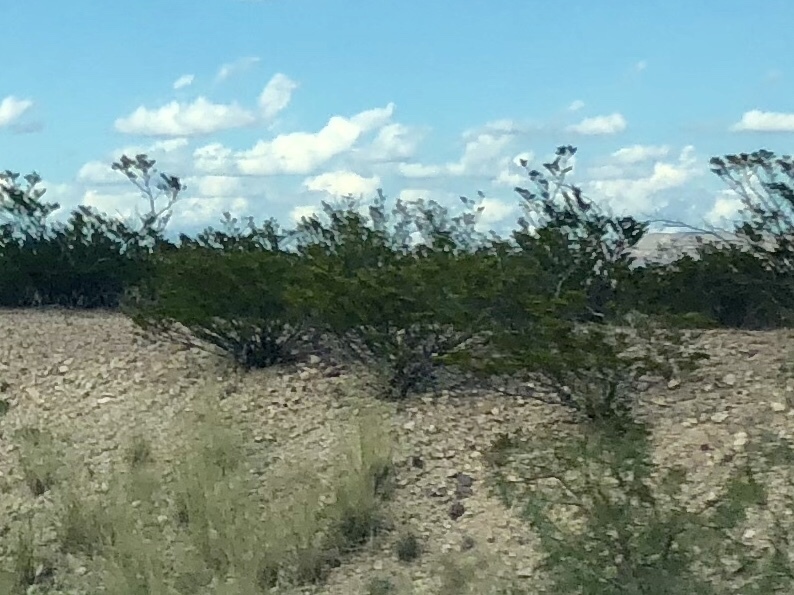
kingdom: Plantae
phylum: Tracheophyta
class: Magnoliopsida
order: Zygophyllales
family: Zygophyllaceae
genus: Larrea
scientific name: Larrea tridentata
